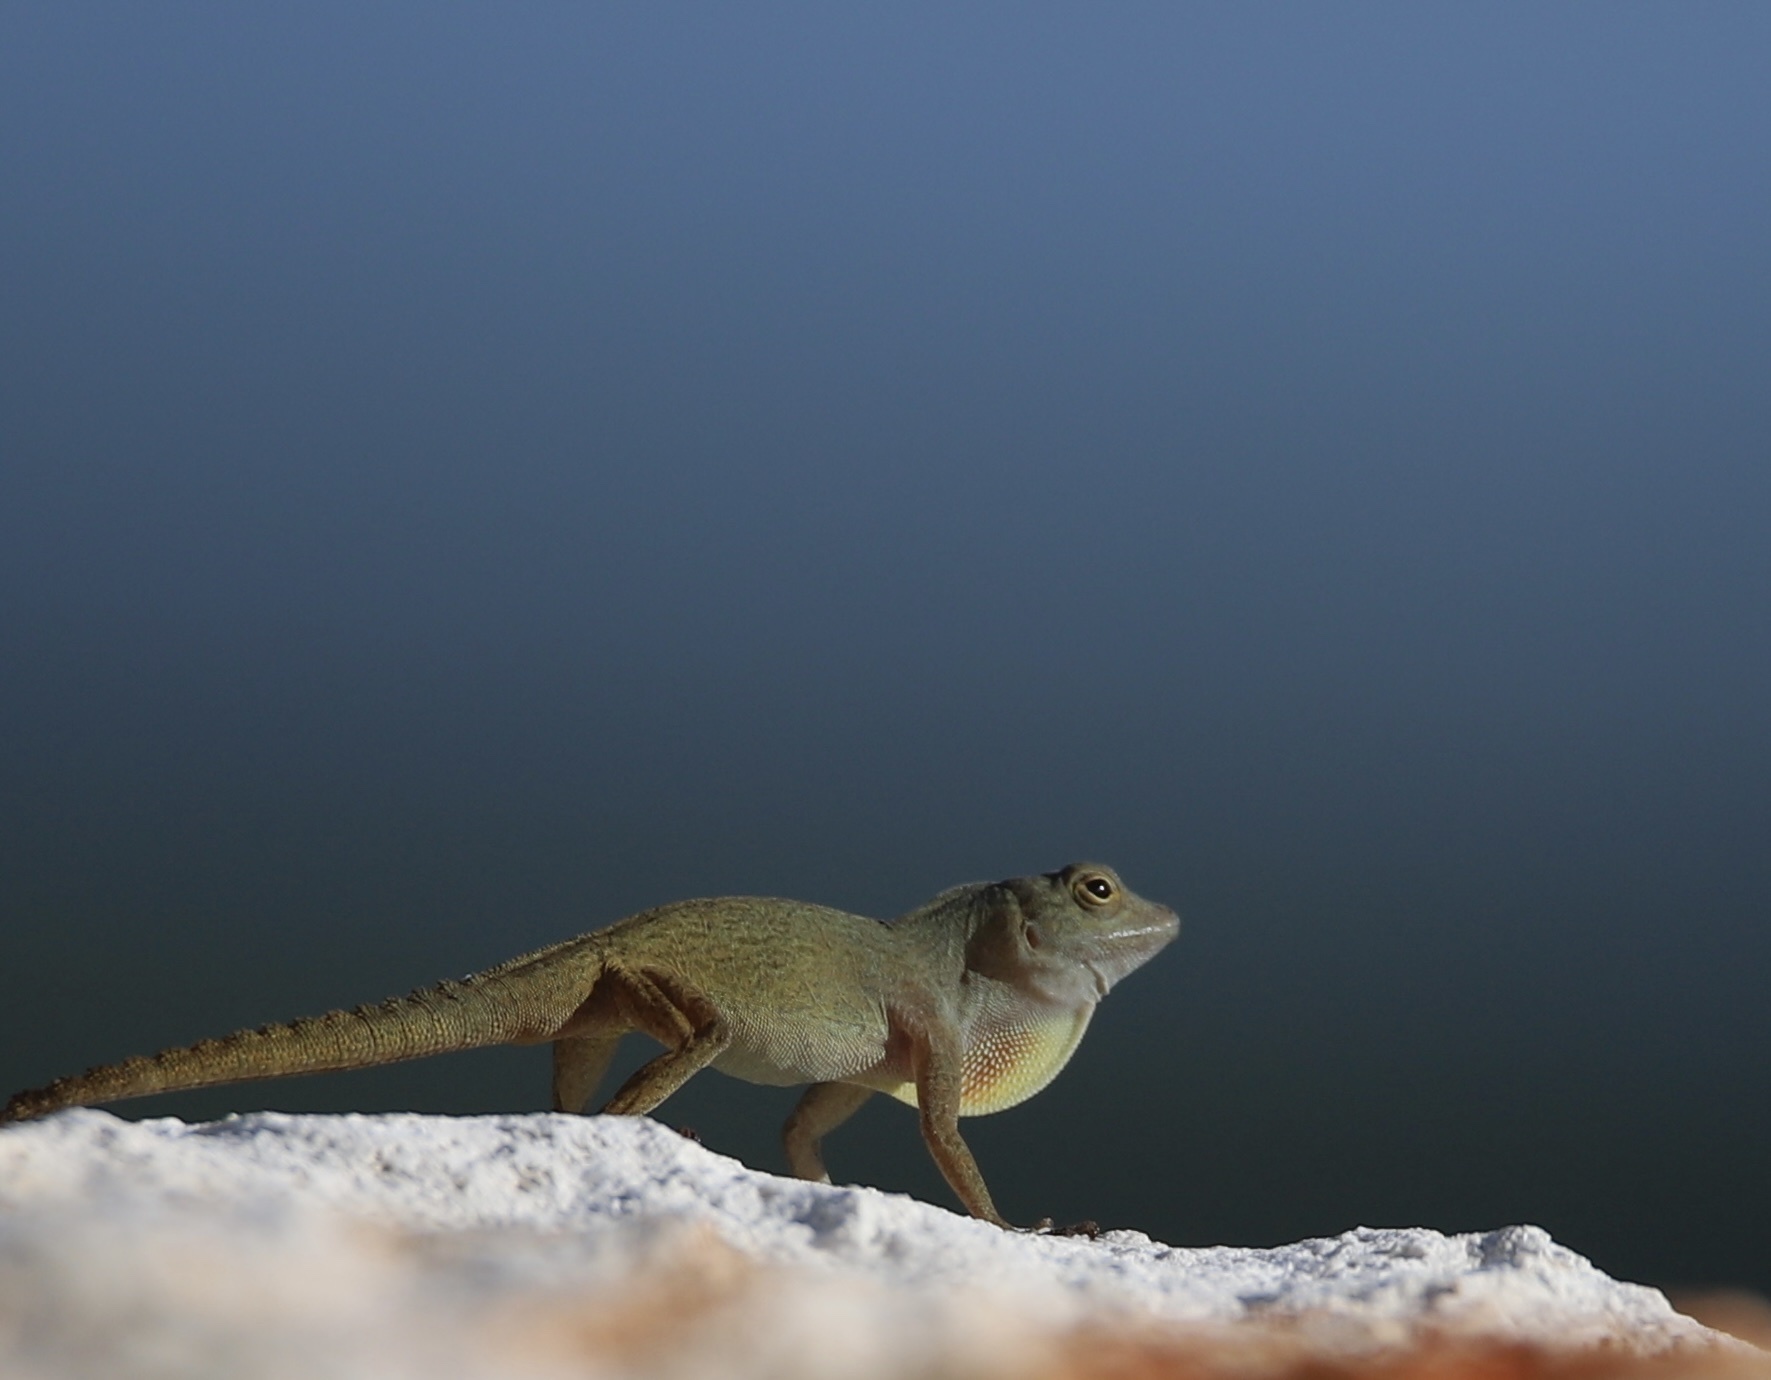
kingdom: Animalia
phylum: Chordata
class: Squamata
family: Dactyloidae
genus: Anolis
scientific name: Anolis distichus
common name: Bark anole
